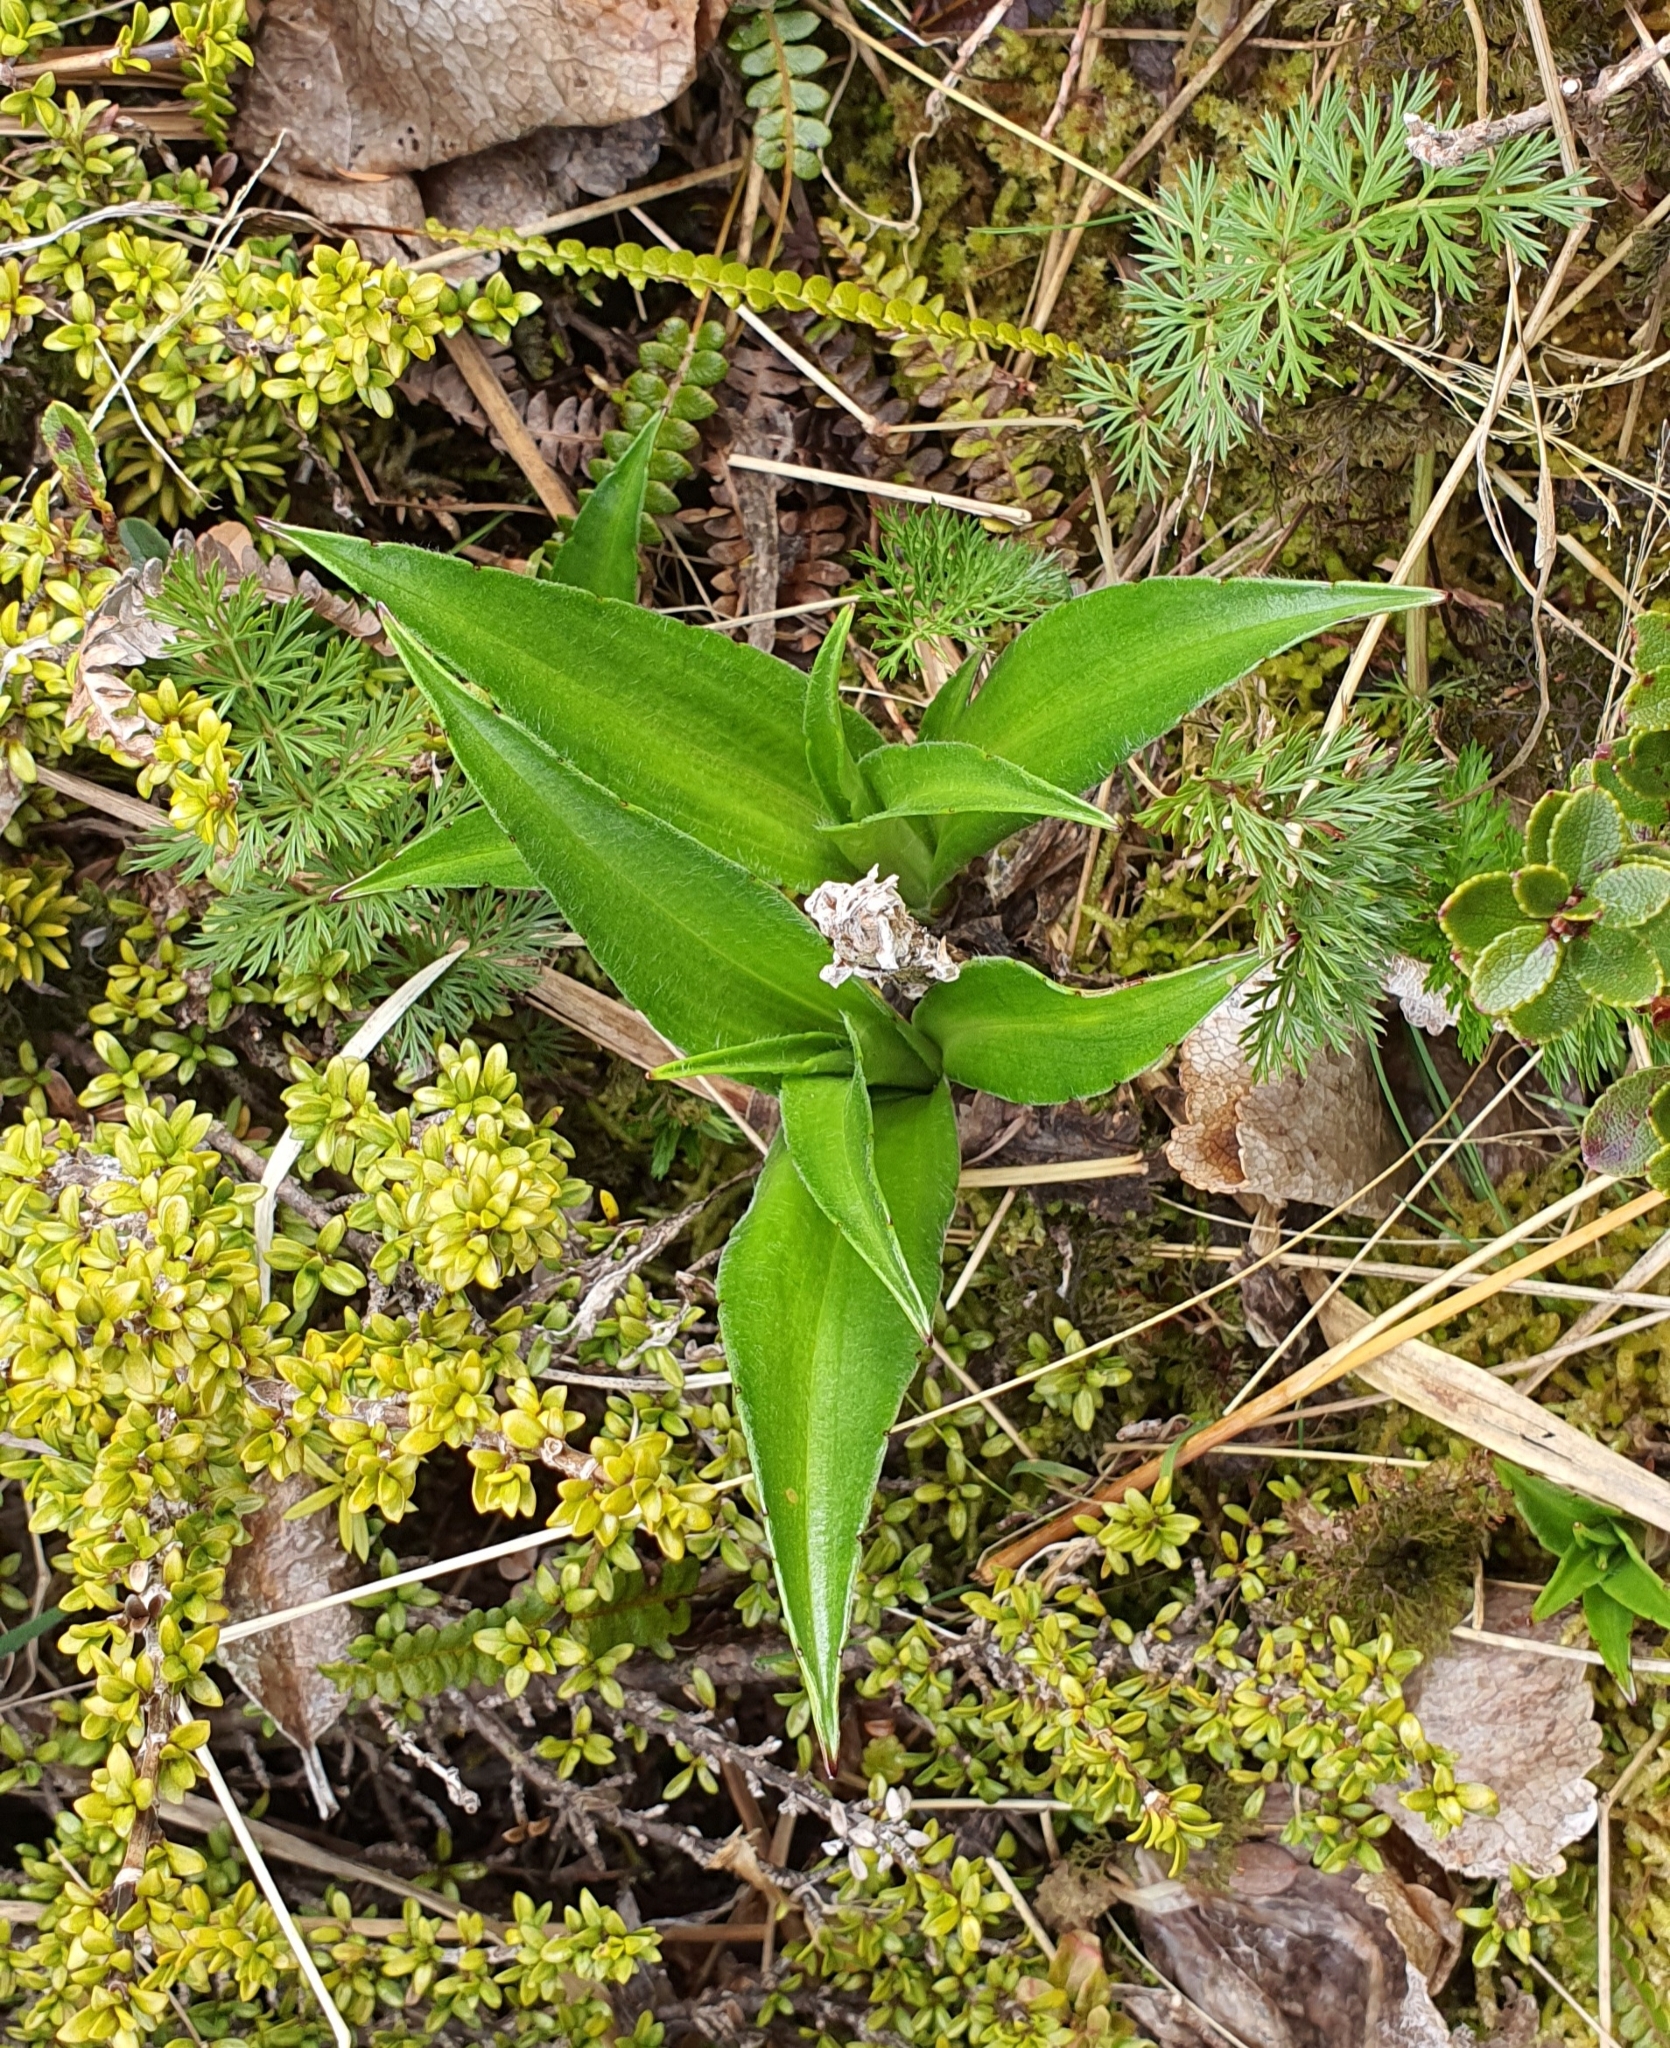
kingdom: Plantae
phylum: Tracheophyta
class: Magnoliopsida
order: Asterales
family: Asteraceae
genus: Dolichoglottis
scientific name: Dolichoglottis scorzoneroides
